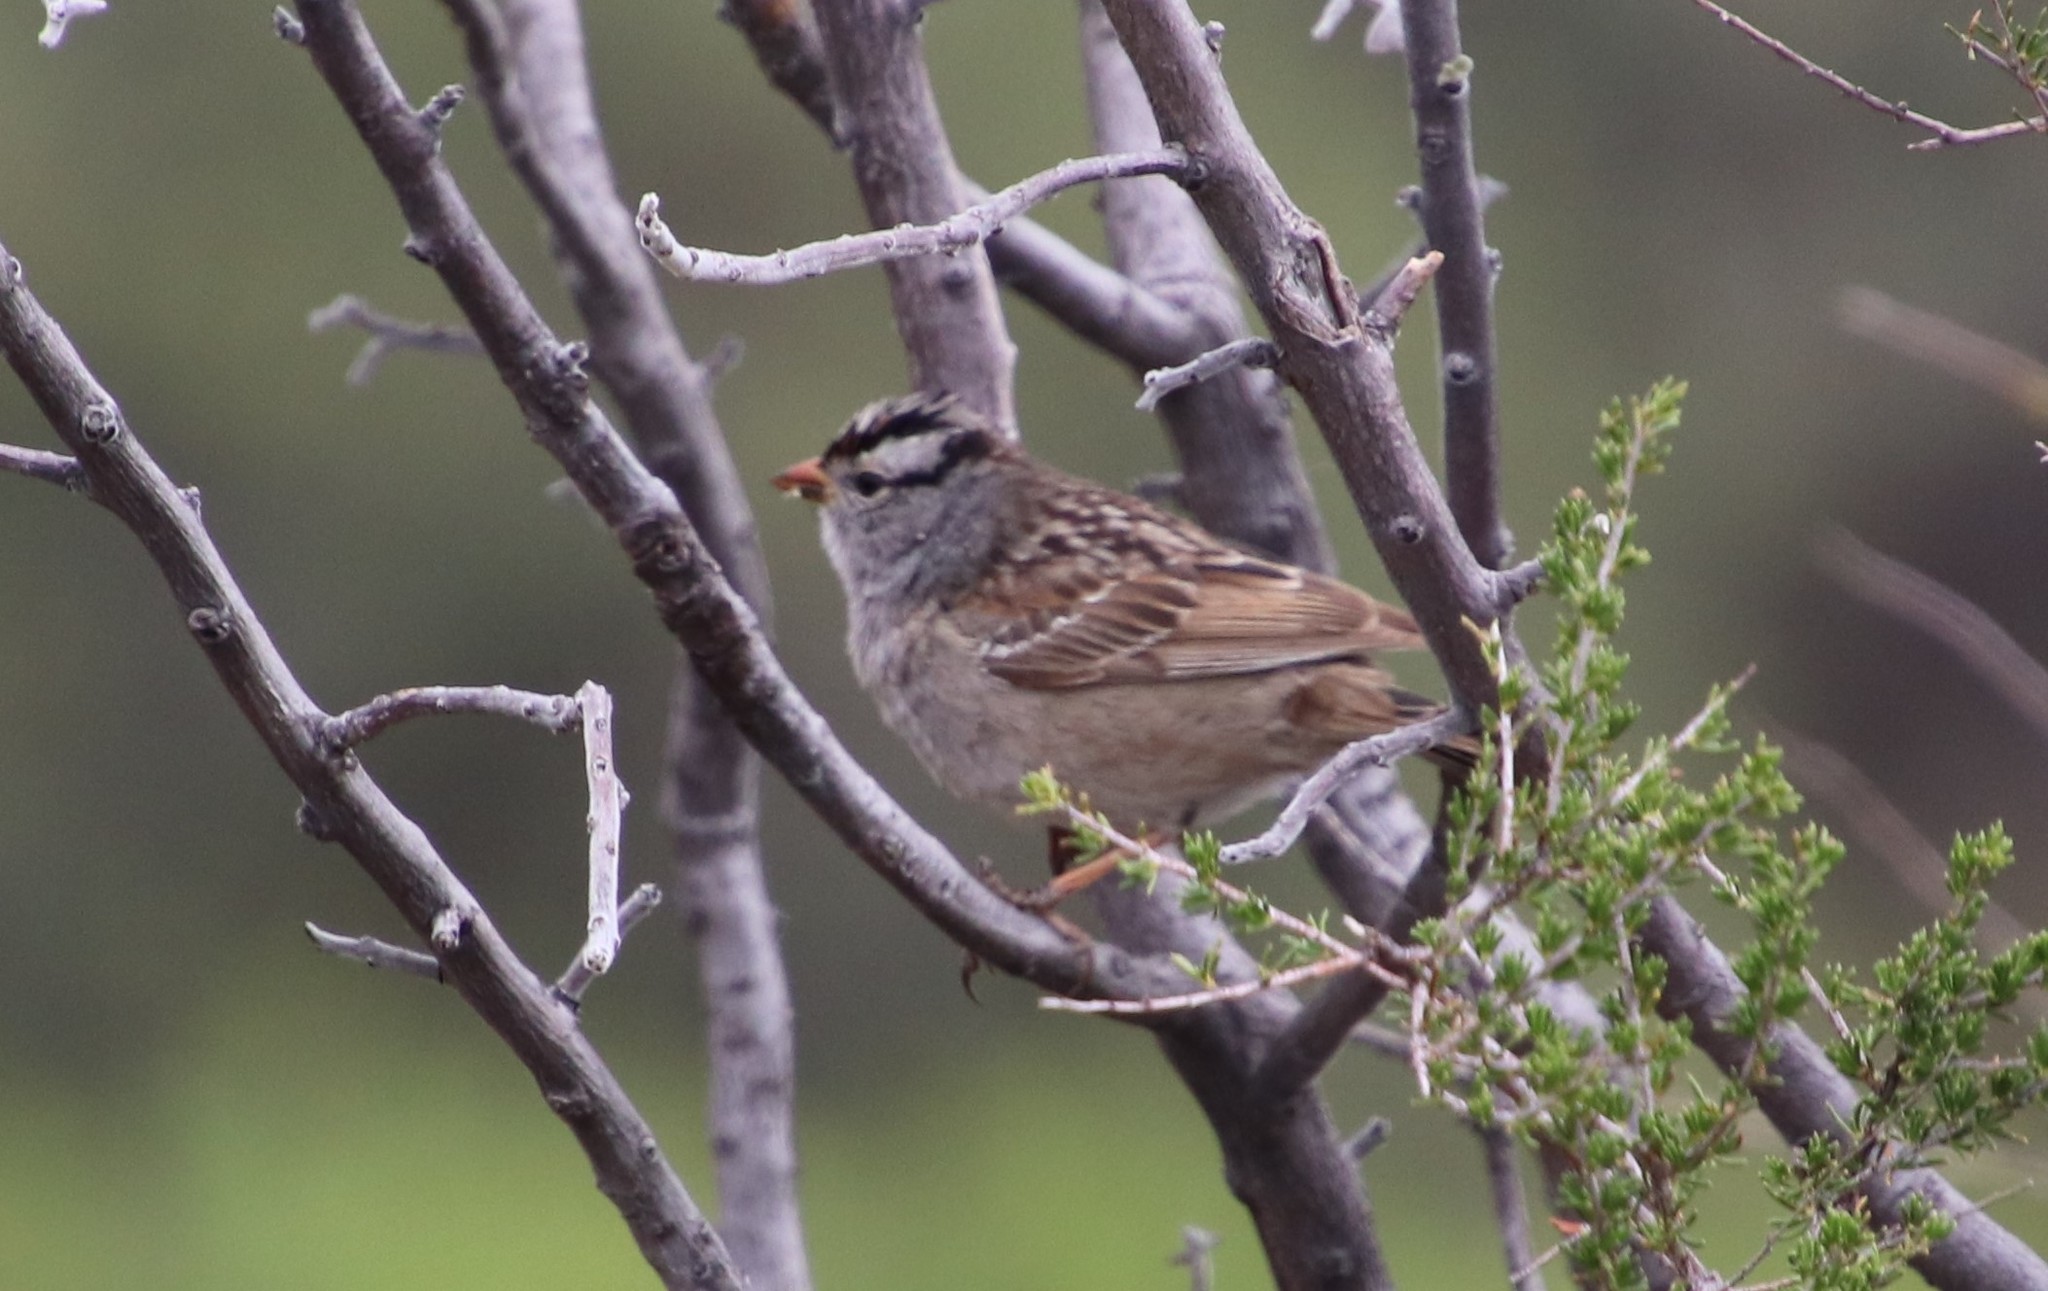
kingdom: Animalia
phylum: Chordata
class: Aves
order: Passeriformes
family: Passerellidae
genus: Zonotrichia
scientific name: Zonotrichia leucophrys
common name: White-crowned sparrow
